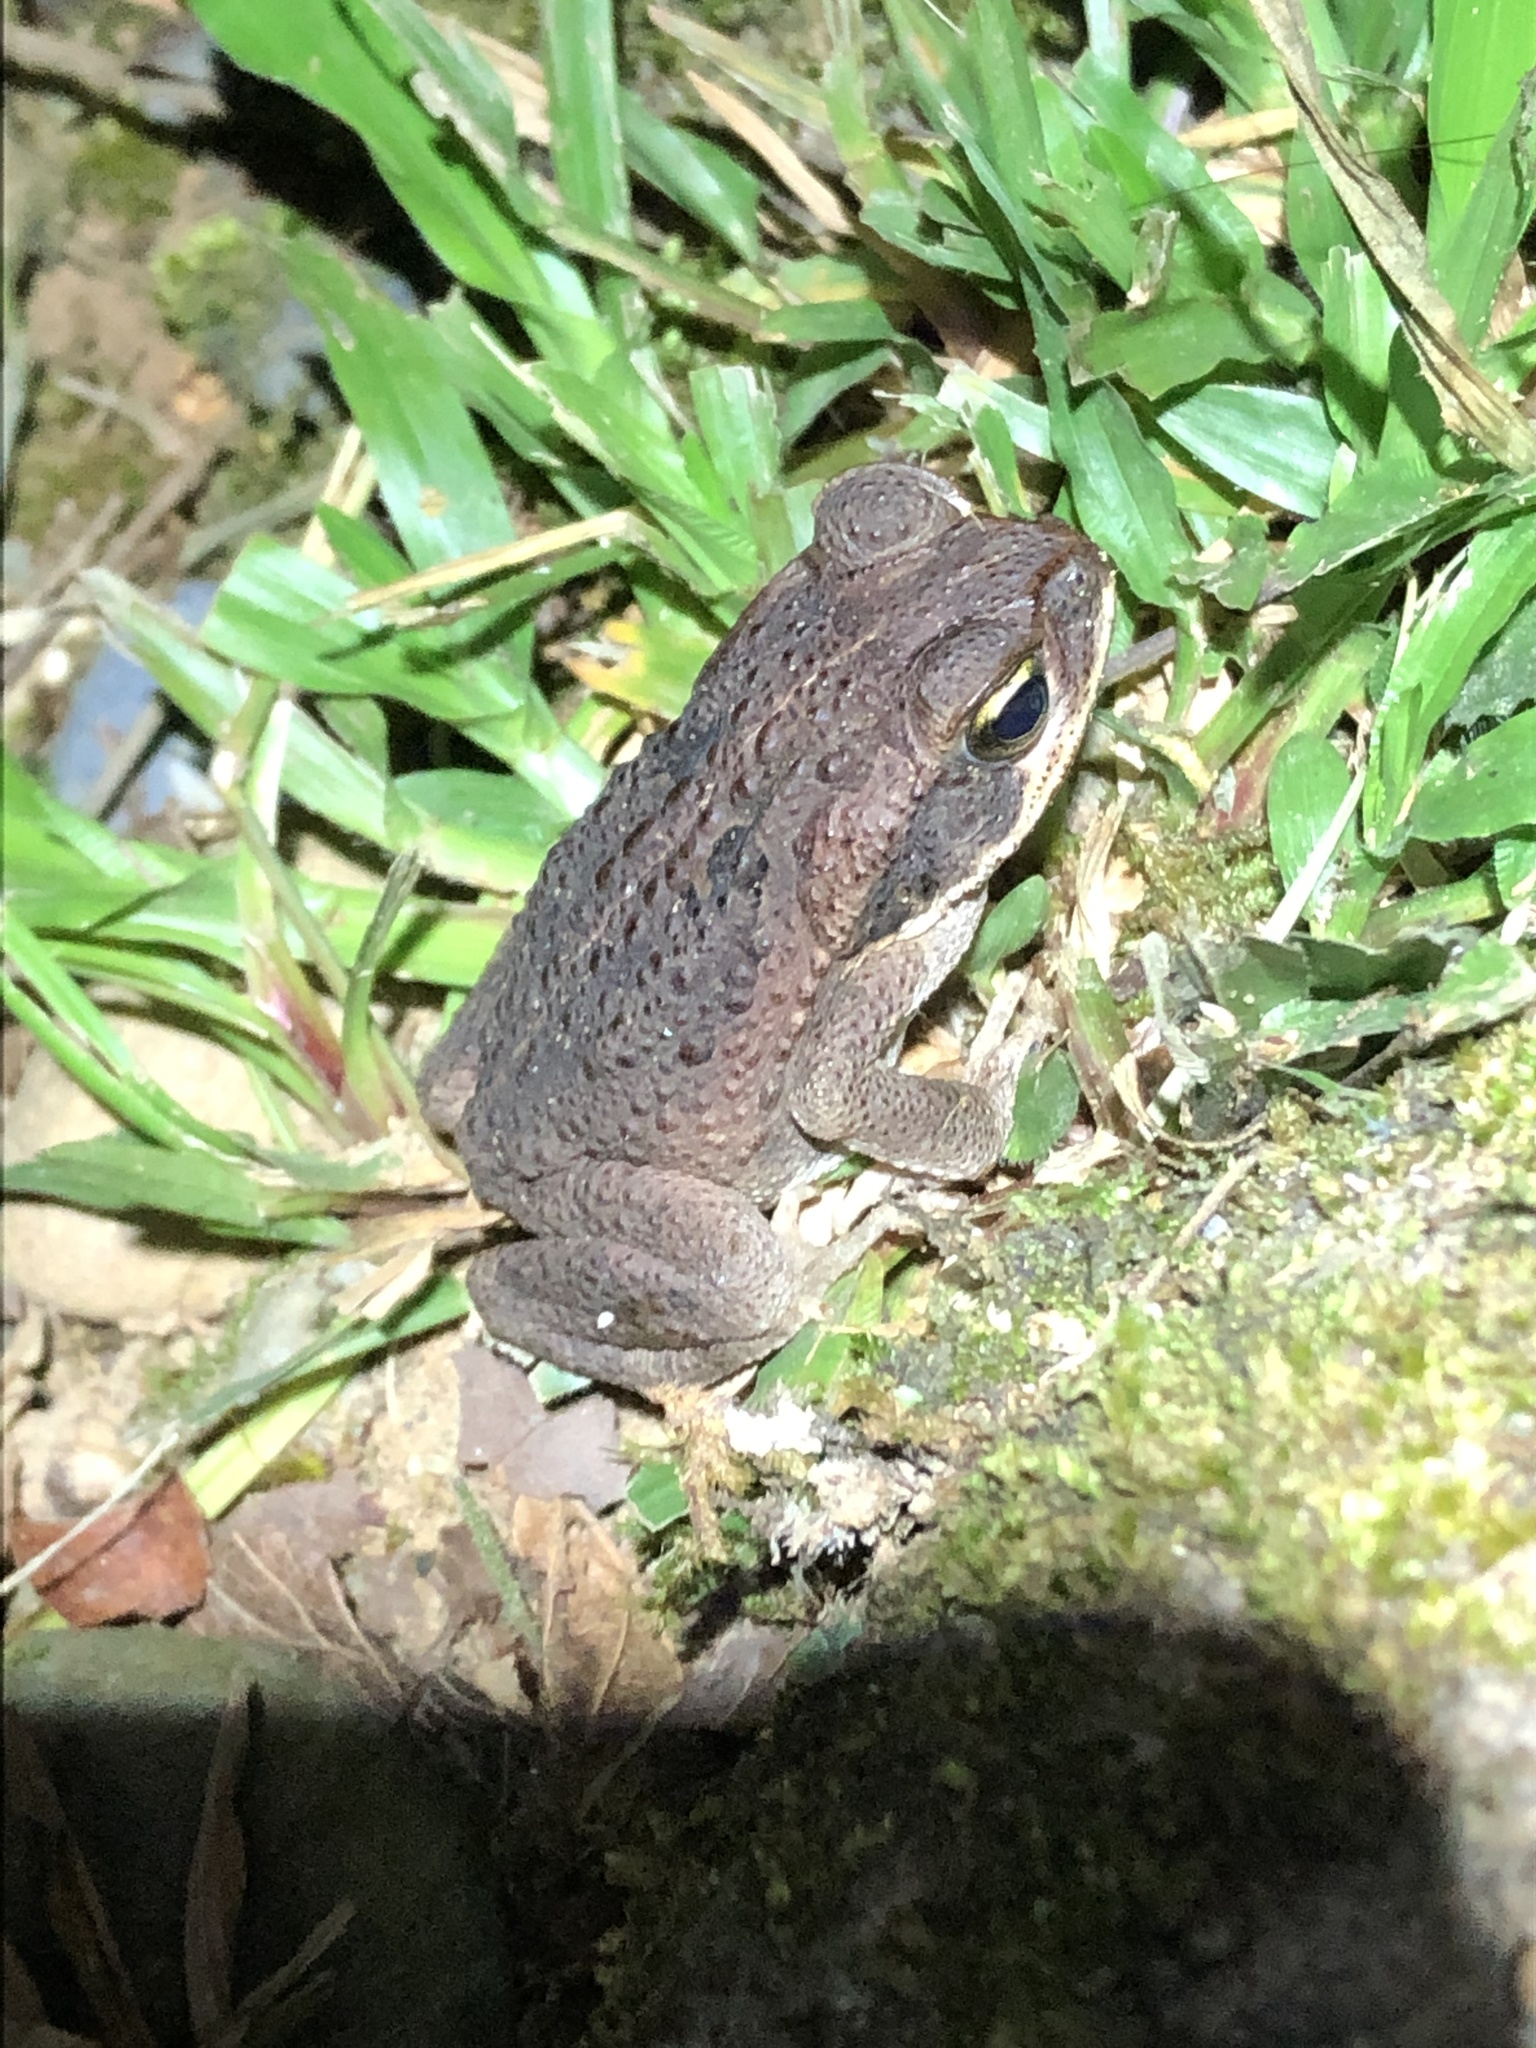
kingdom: Animalia
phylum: Chordata
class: Amphibia
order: Anura
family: Bufonidae
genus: Rhinella
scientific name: Rhinella marina
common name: Cane toad
